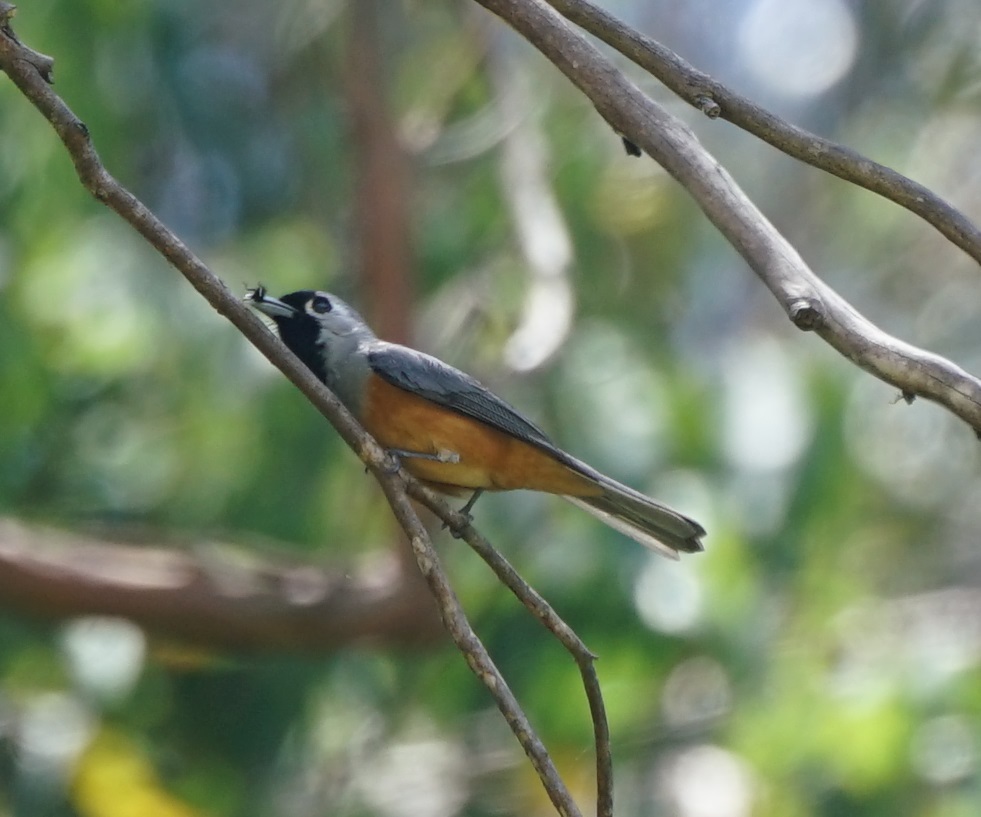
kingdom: Animalia
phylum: Chordata
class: Aves
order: Passeriformes
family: Monarchidae
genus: Monarcha
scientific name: Monarcha melanopsis
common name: Black-faced monarch
